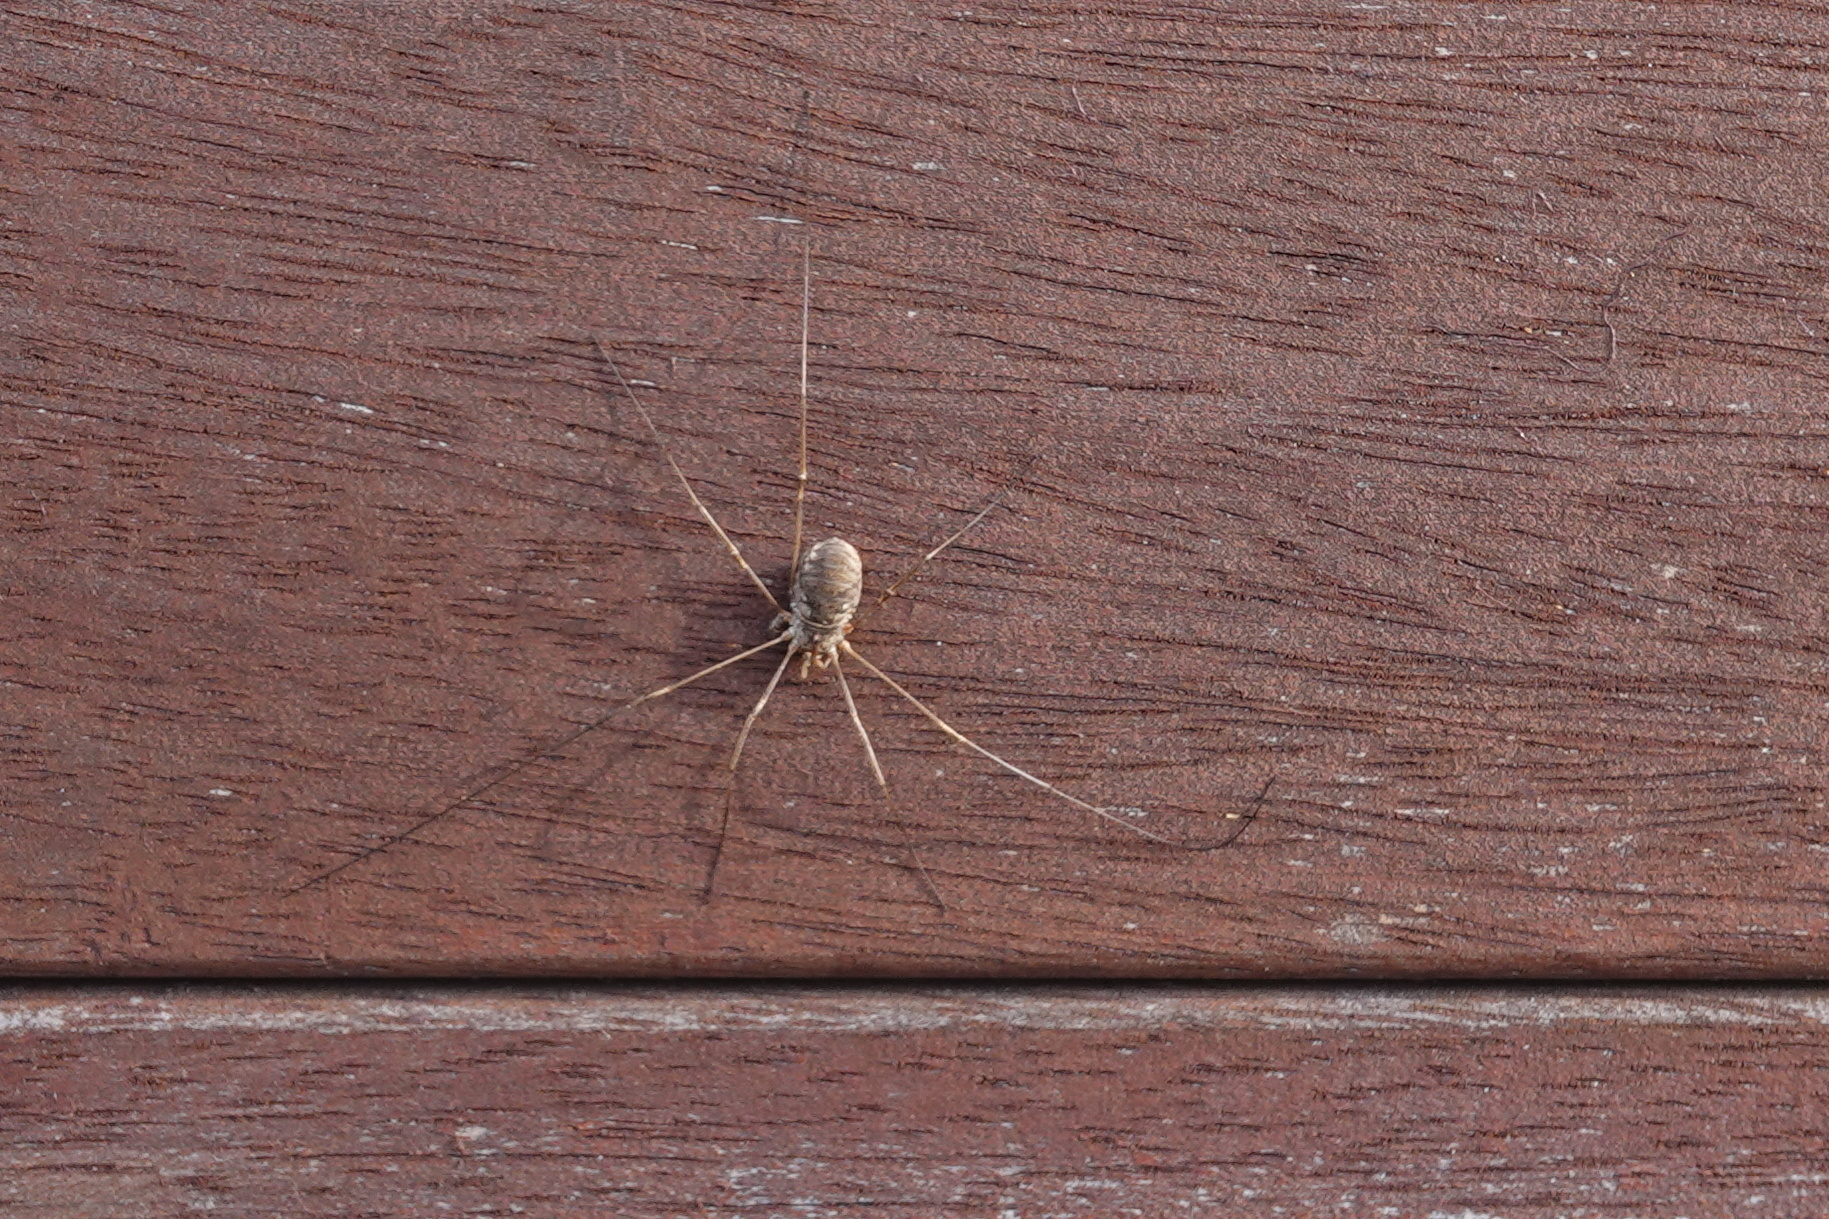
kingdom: Animalia
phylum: Arthropoda
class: Arachnida
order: Opiliones
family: Phalangiidae
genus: Phalangium
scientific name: Phalangium opilio
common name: Daddy longleg
